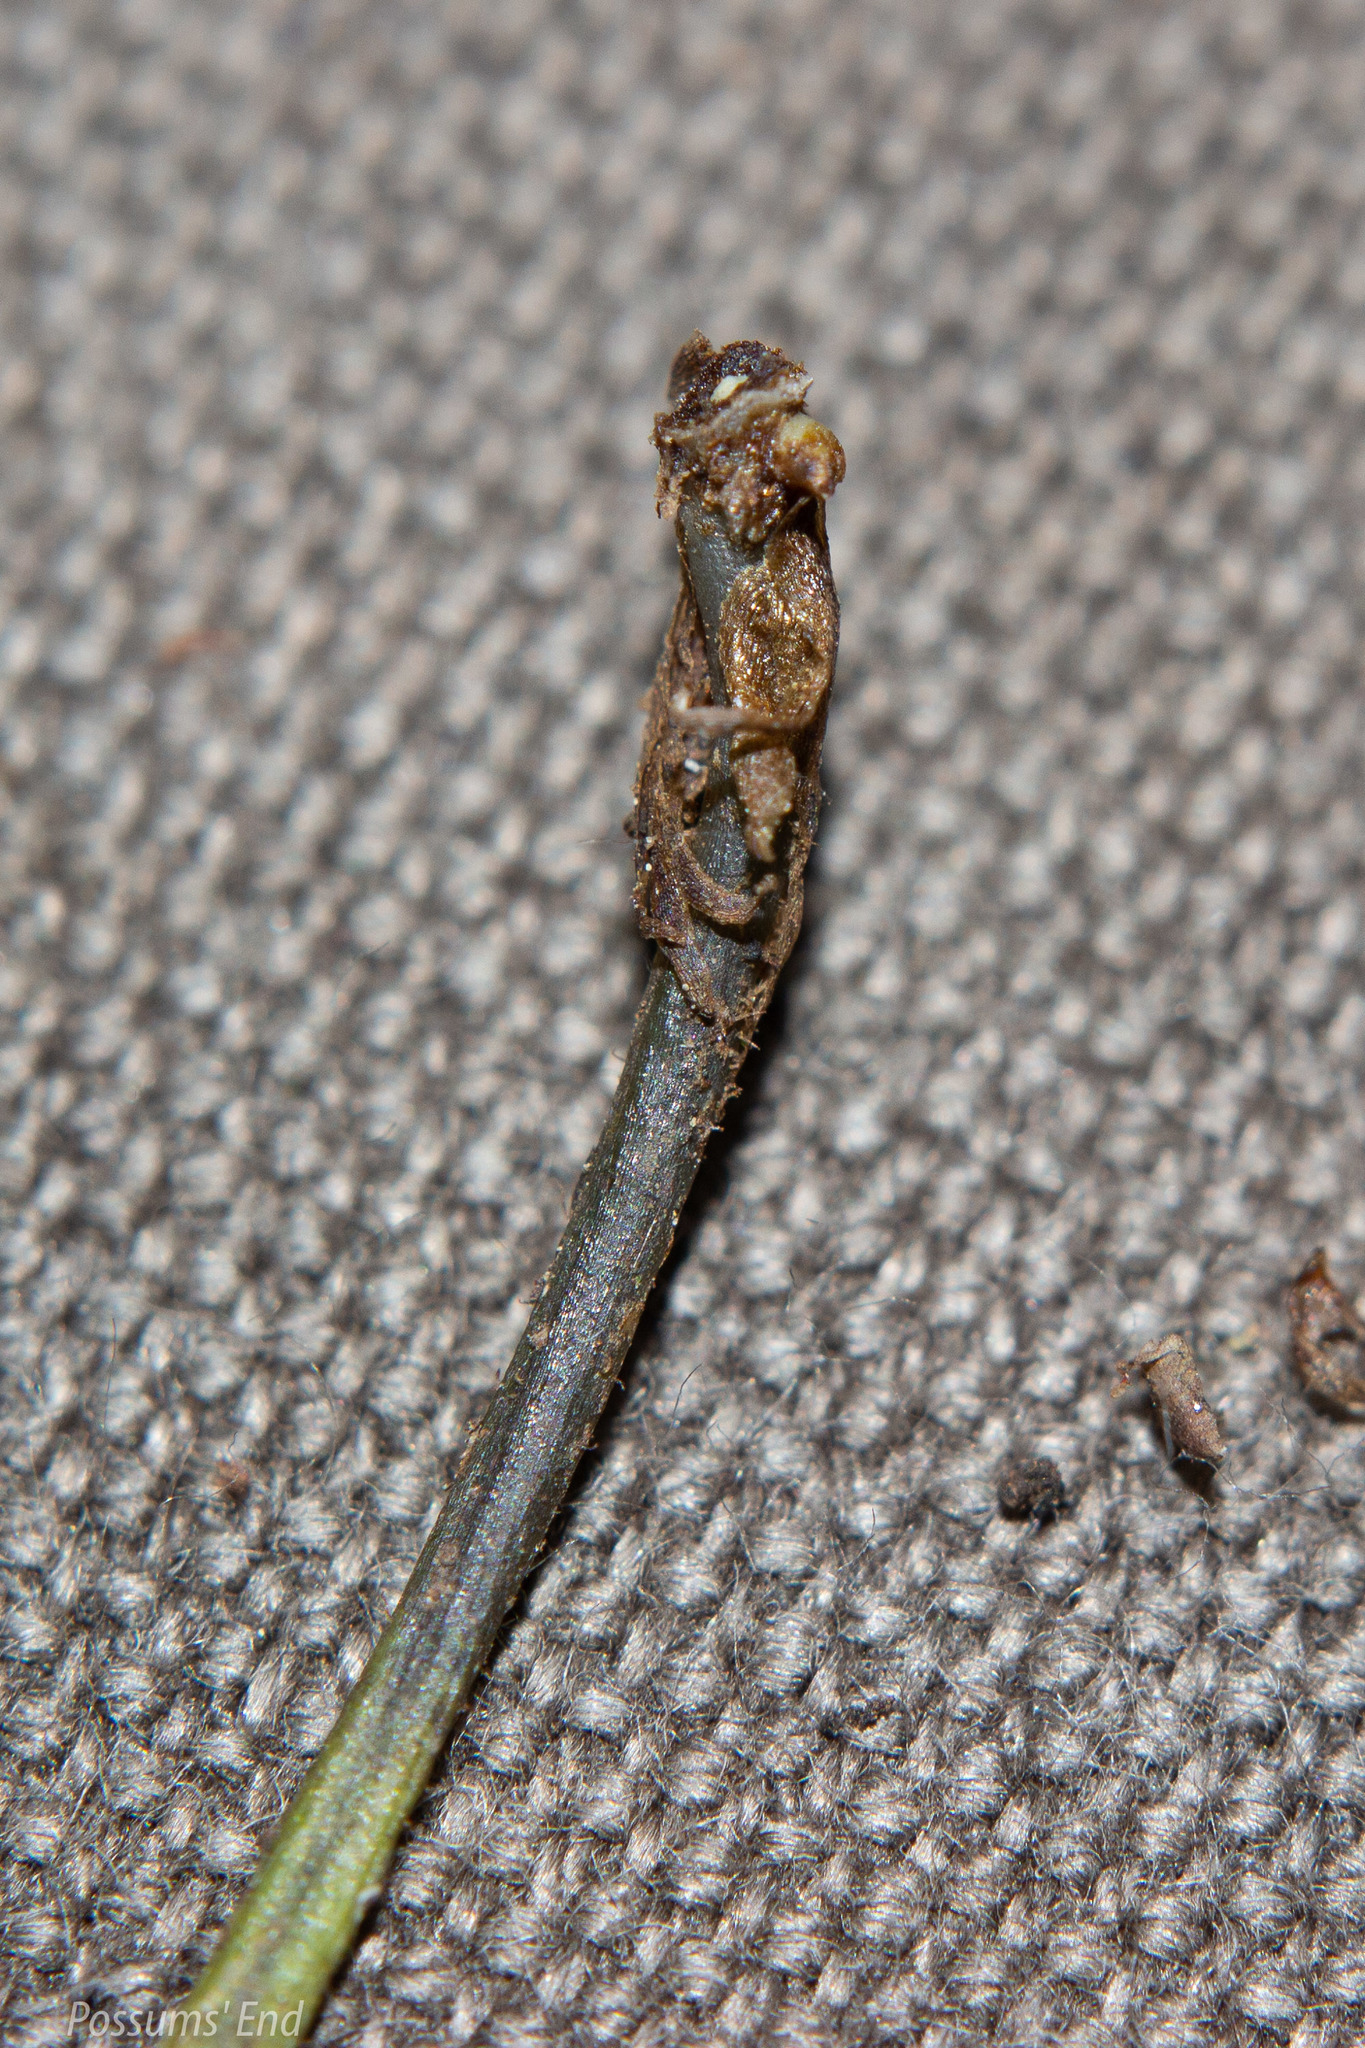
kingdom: Plantae
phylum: Tracheophyta
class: Polypodiopsida
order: Polypodiales
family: Polypodiaceae
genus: Notogrammitis
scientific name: Notogrammitis heterophylla
